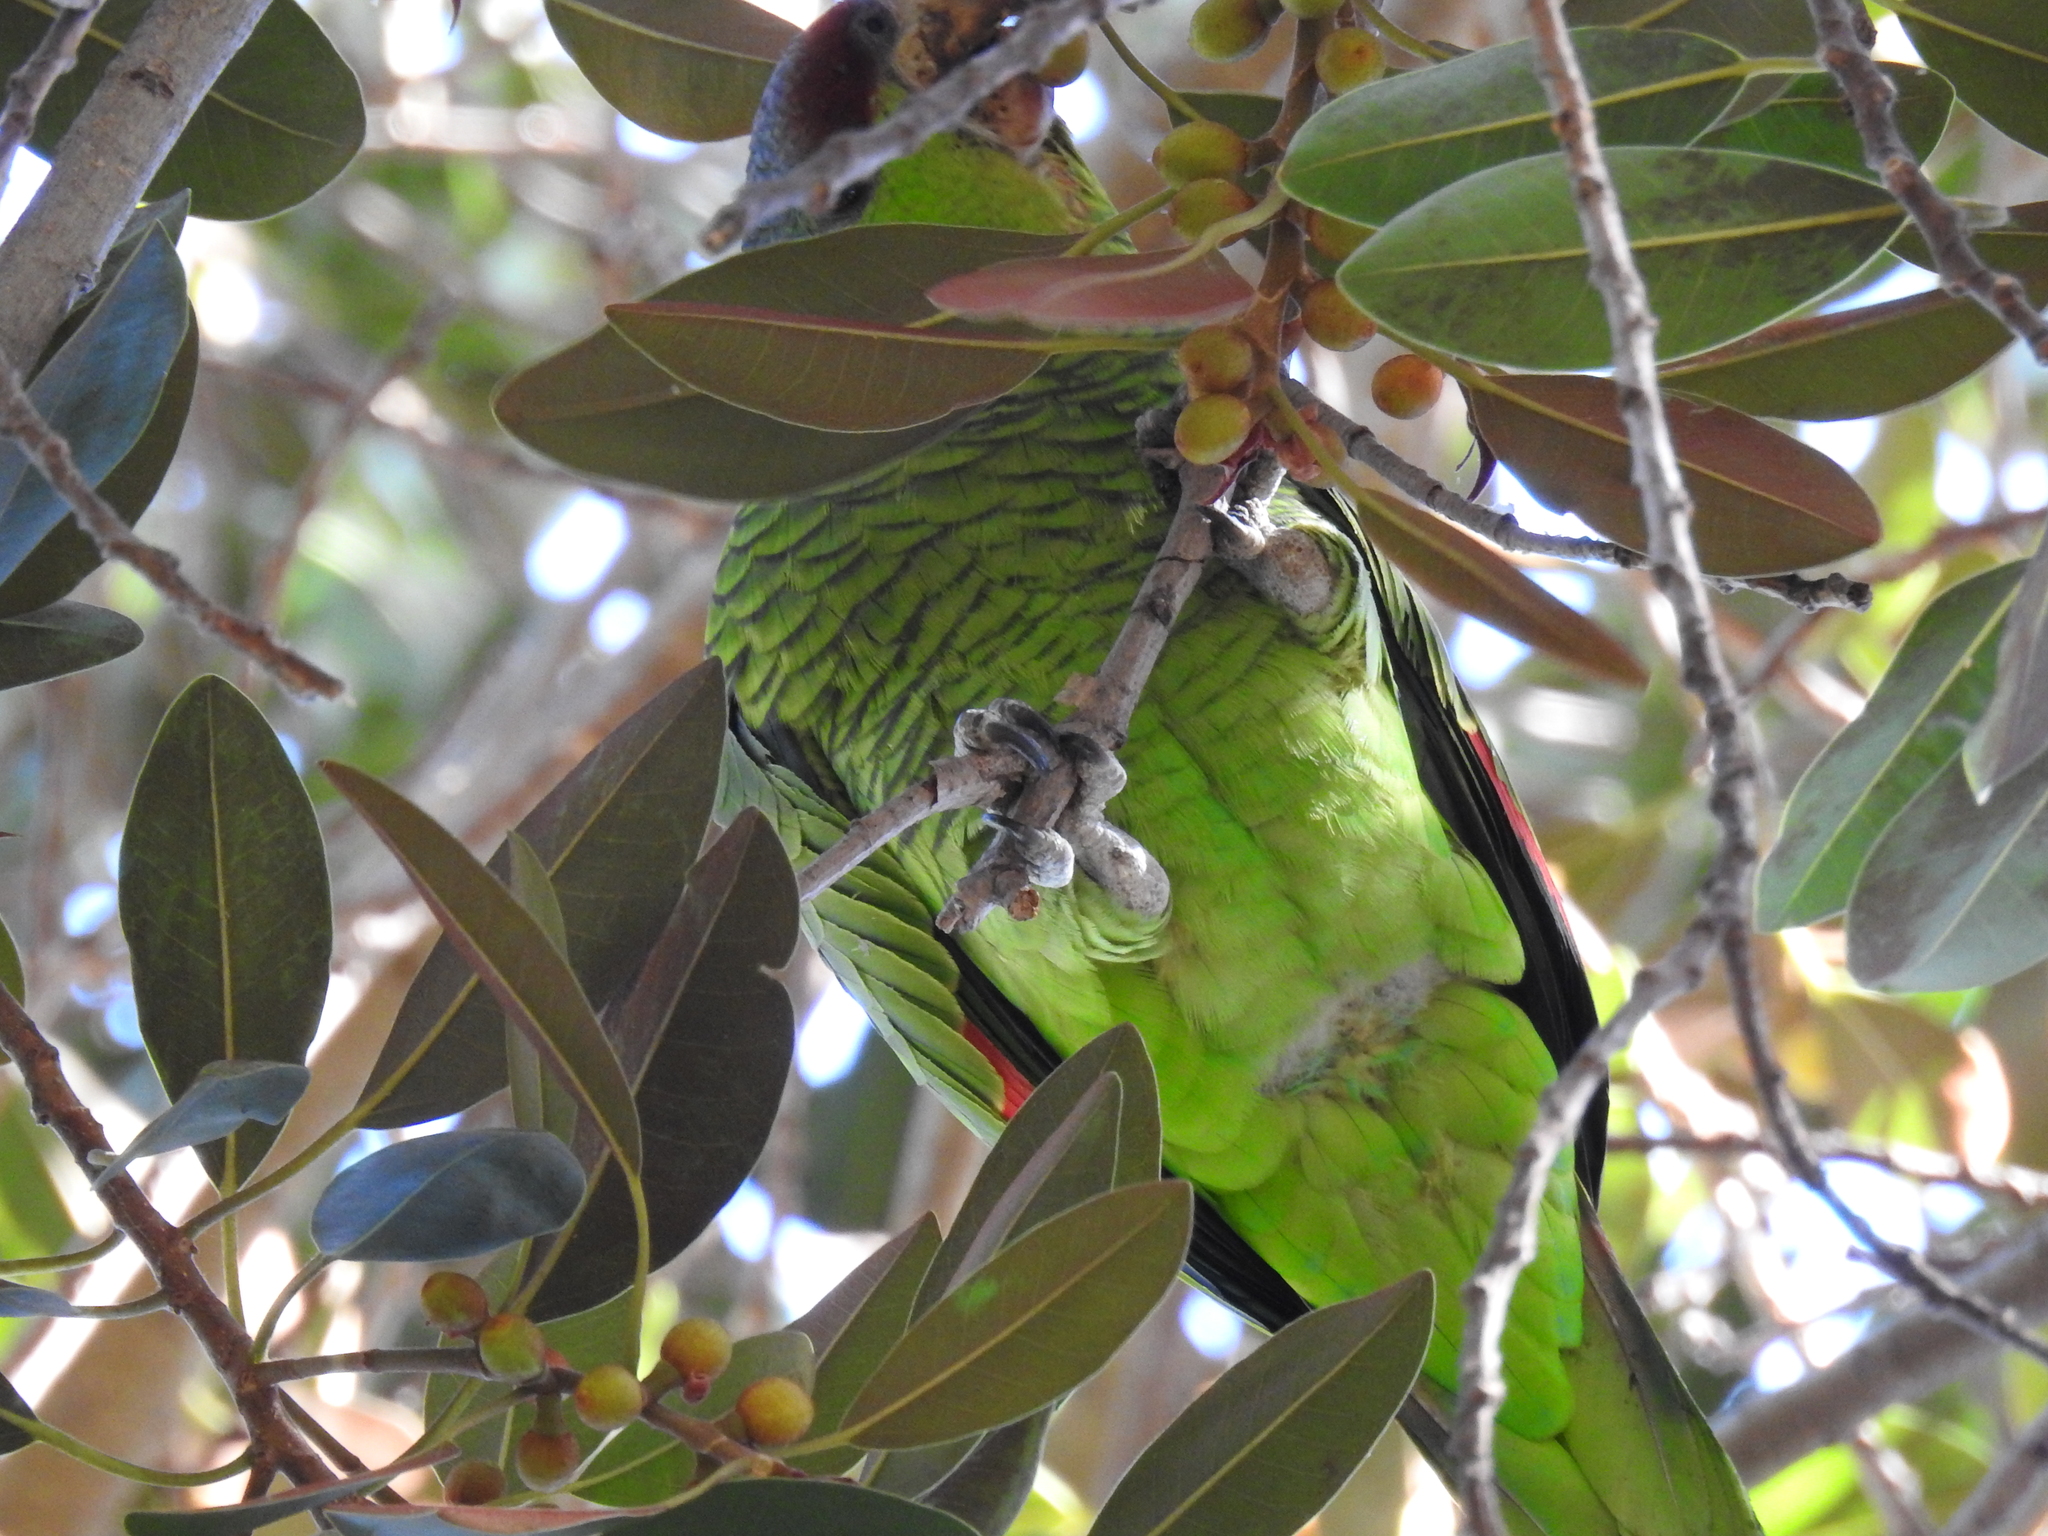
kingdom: Animalia
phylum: Chordata
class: Aves
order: Psittaciformes
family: Psittacidae
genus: Amazona
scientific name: Amazona finschi
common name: Lilac-crowned amazon
